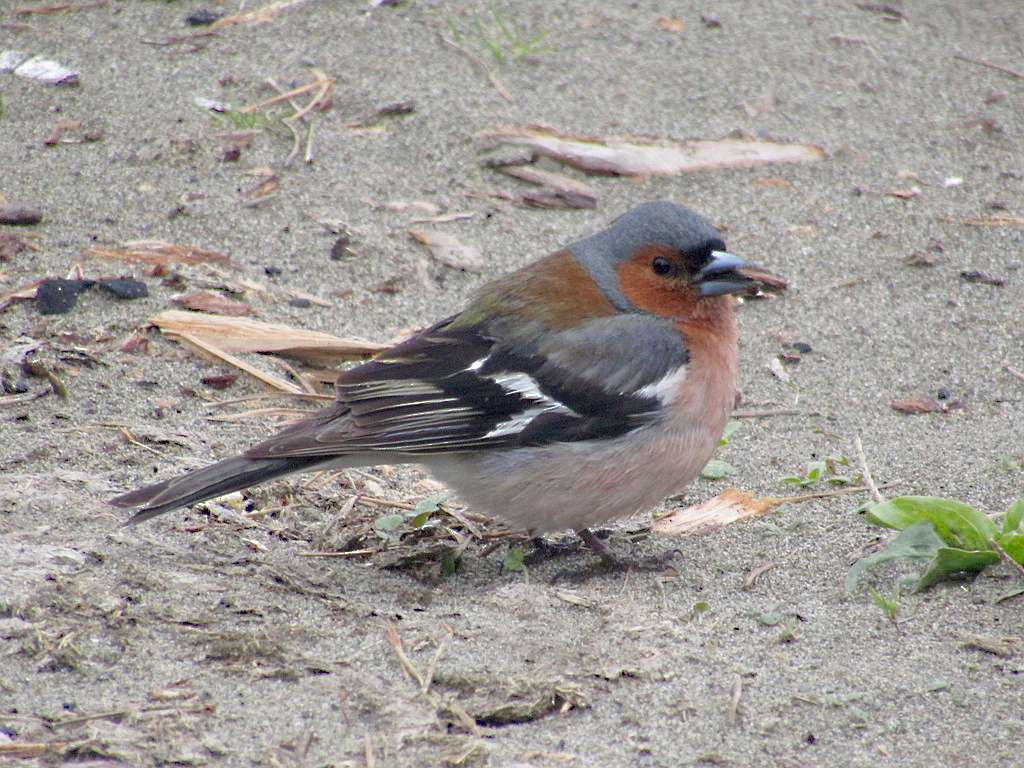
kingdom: Animalia
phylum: Chordata
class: Aves
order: Passeriformes
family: Fringillidae
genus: Fringilla
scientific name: Fringilla coelebs
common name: Common chaffinch
